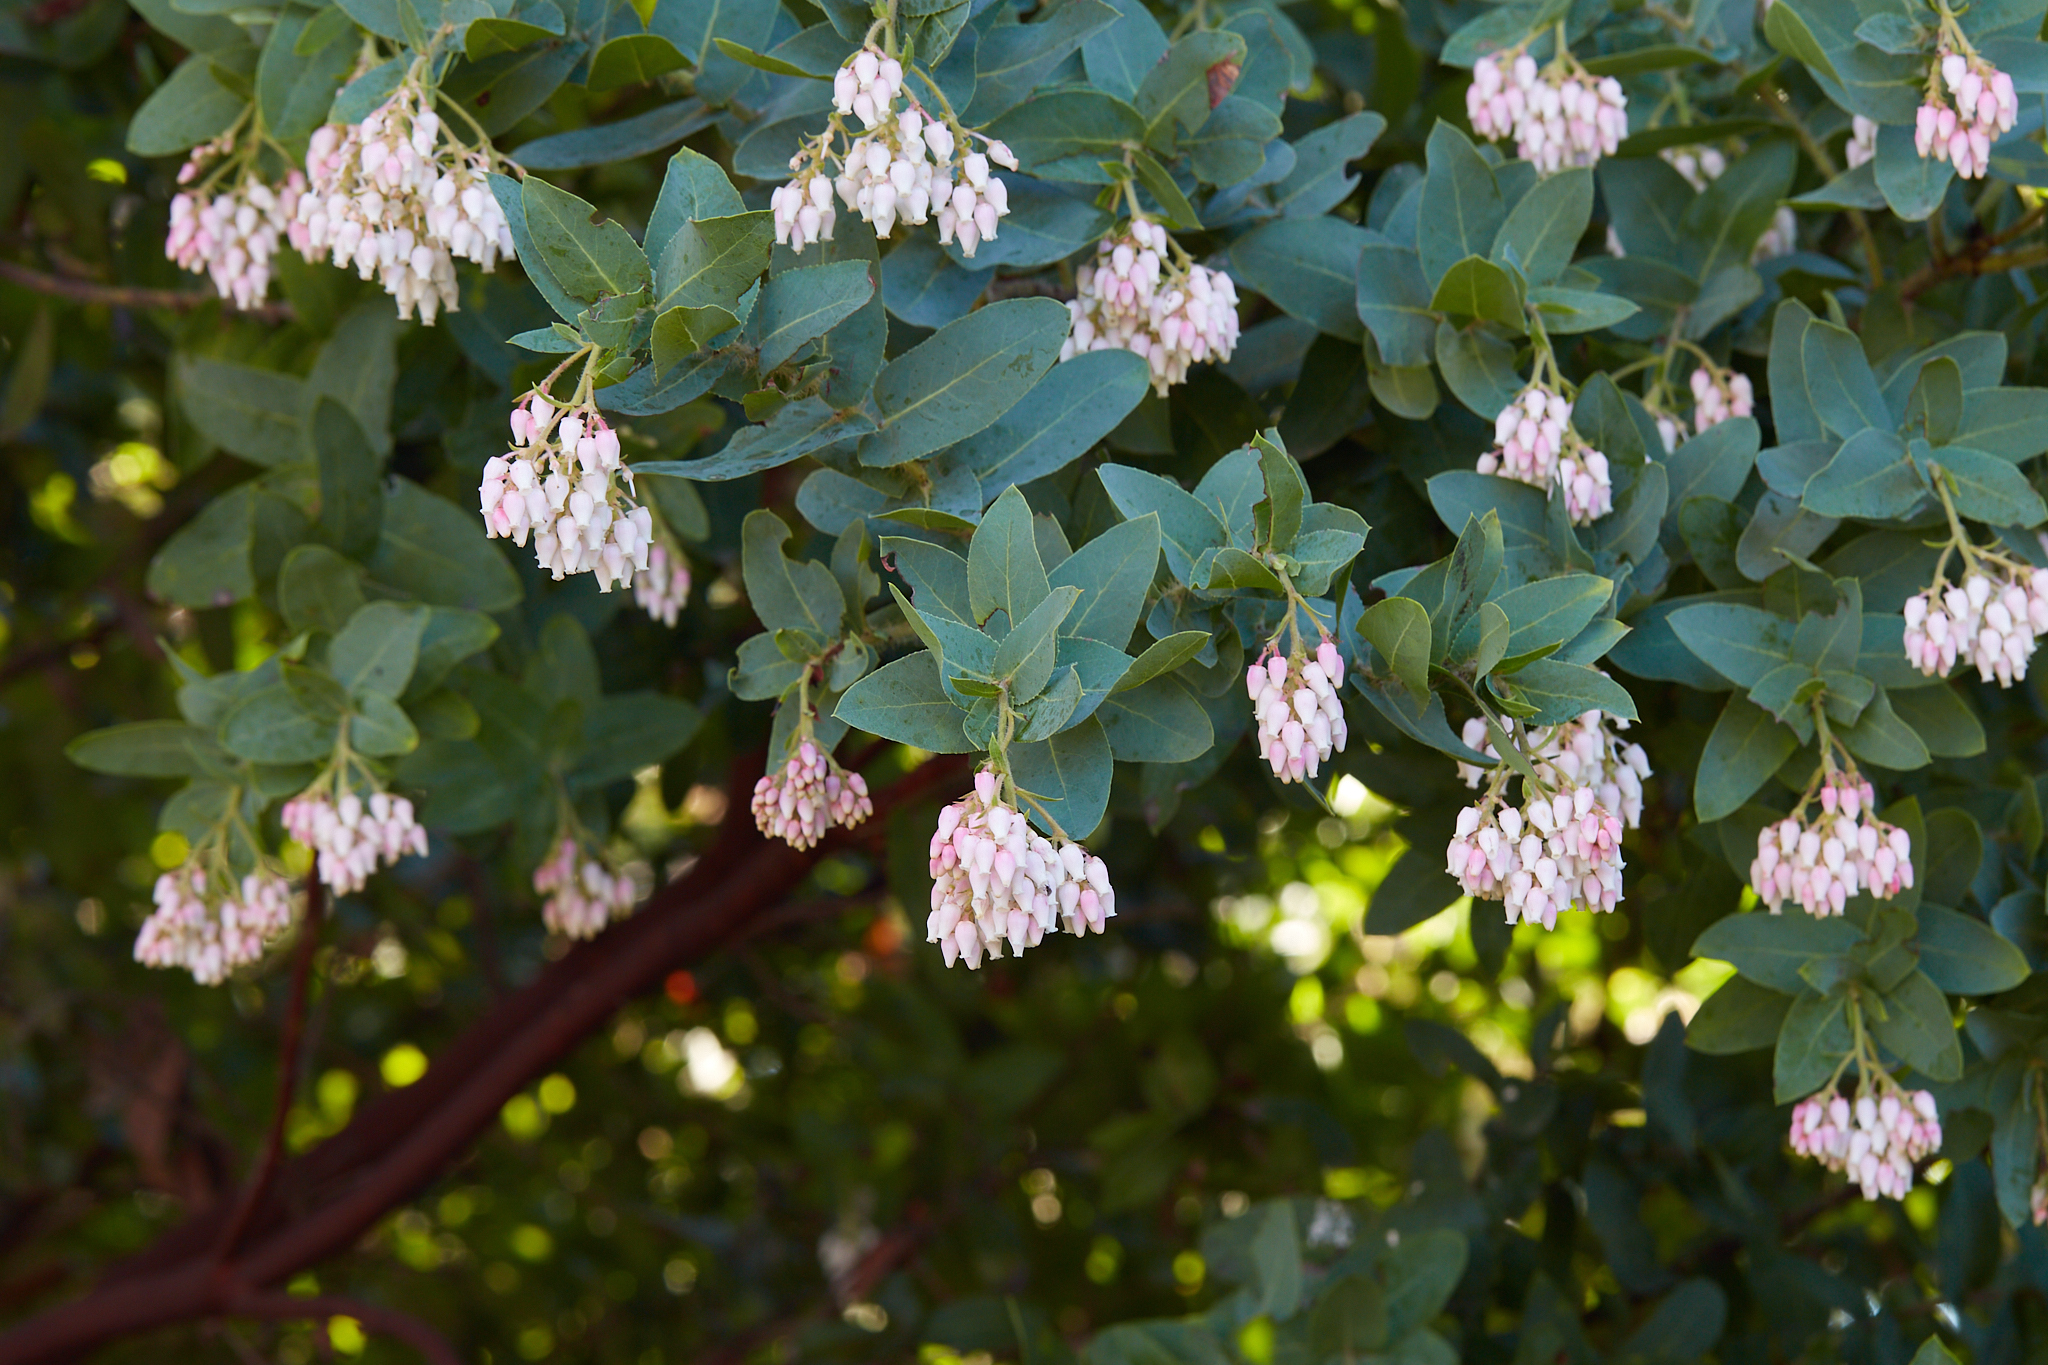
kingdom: Plantae
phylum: Tracheophyta
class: Magnoliopsida
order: Ericales
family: Ericaceae
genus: Arctostaphylos
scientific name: Arctostaphylos andersonii
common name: Santa cruz manzanita
